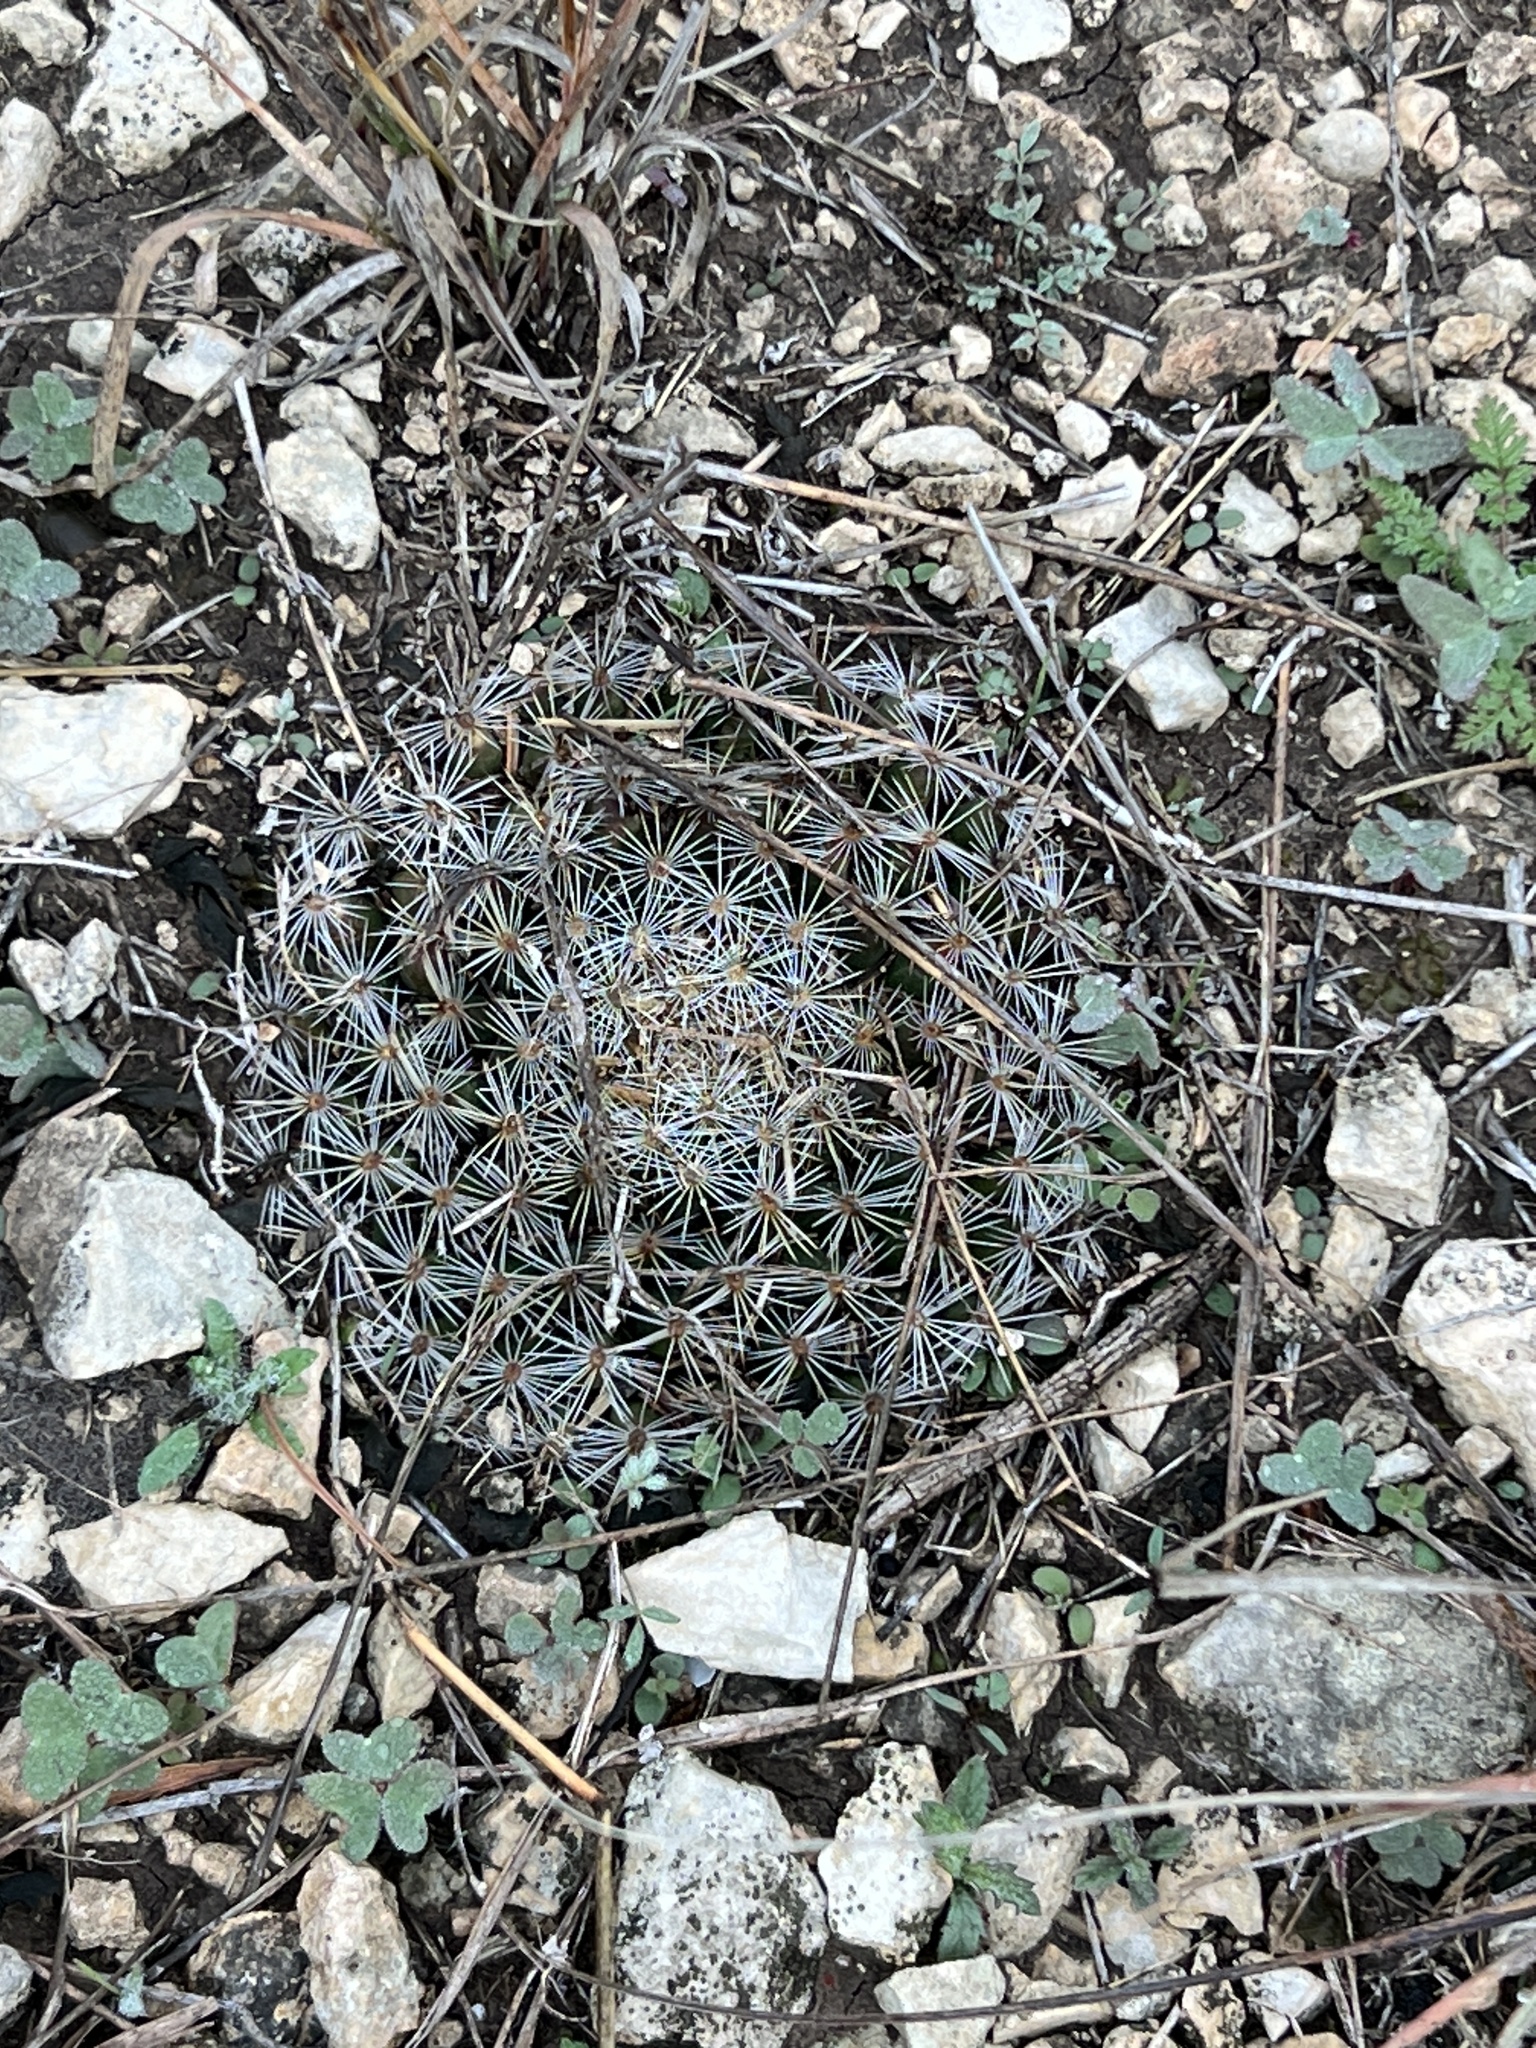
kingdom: Plantae
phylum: Tracheophyta
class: Magnoliopsida
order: Caryophyllales
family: Cactaceae
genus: Mammillaria
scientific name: Mammillaria heyderi
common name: Little nipple cactus
